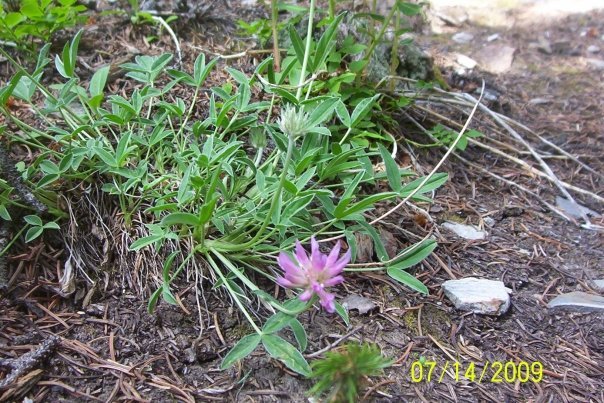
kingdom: Plantae
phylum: Tracheophyta
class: Magnoliopsida
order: Fabales
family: Fabaceae
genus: Trifolium
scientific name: Trifolium attenuatum
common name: Rocky mountain clover
